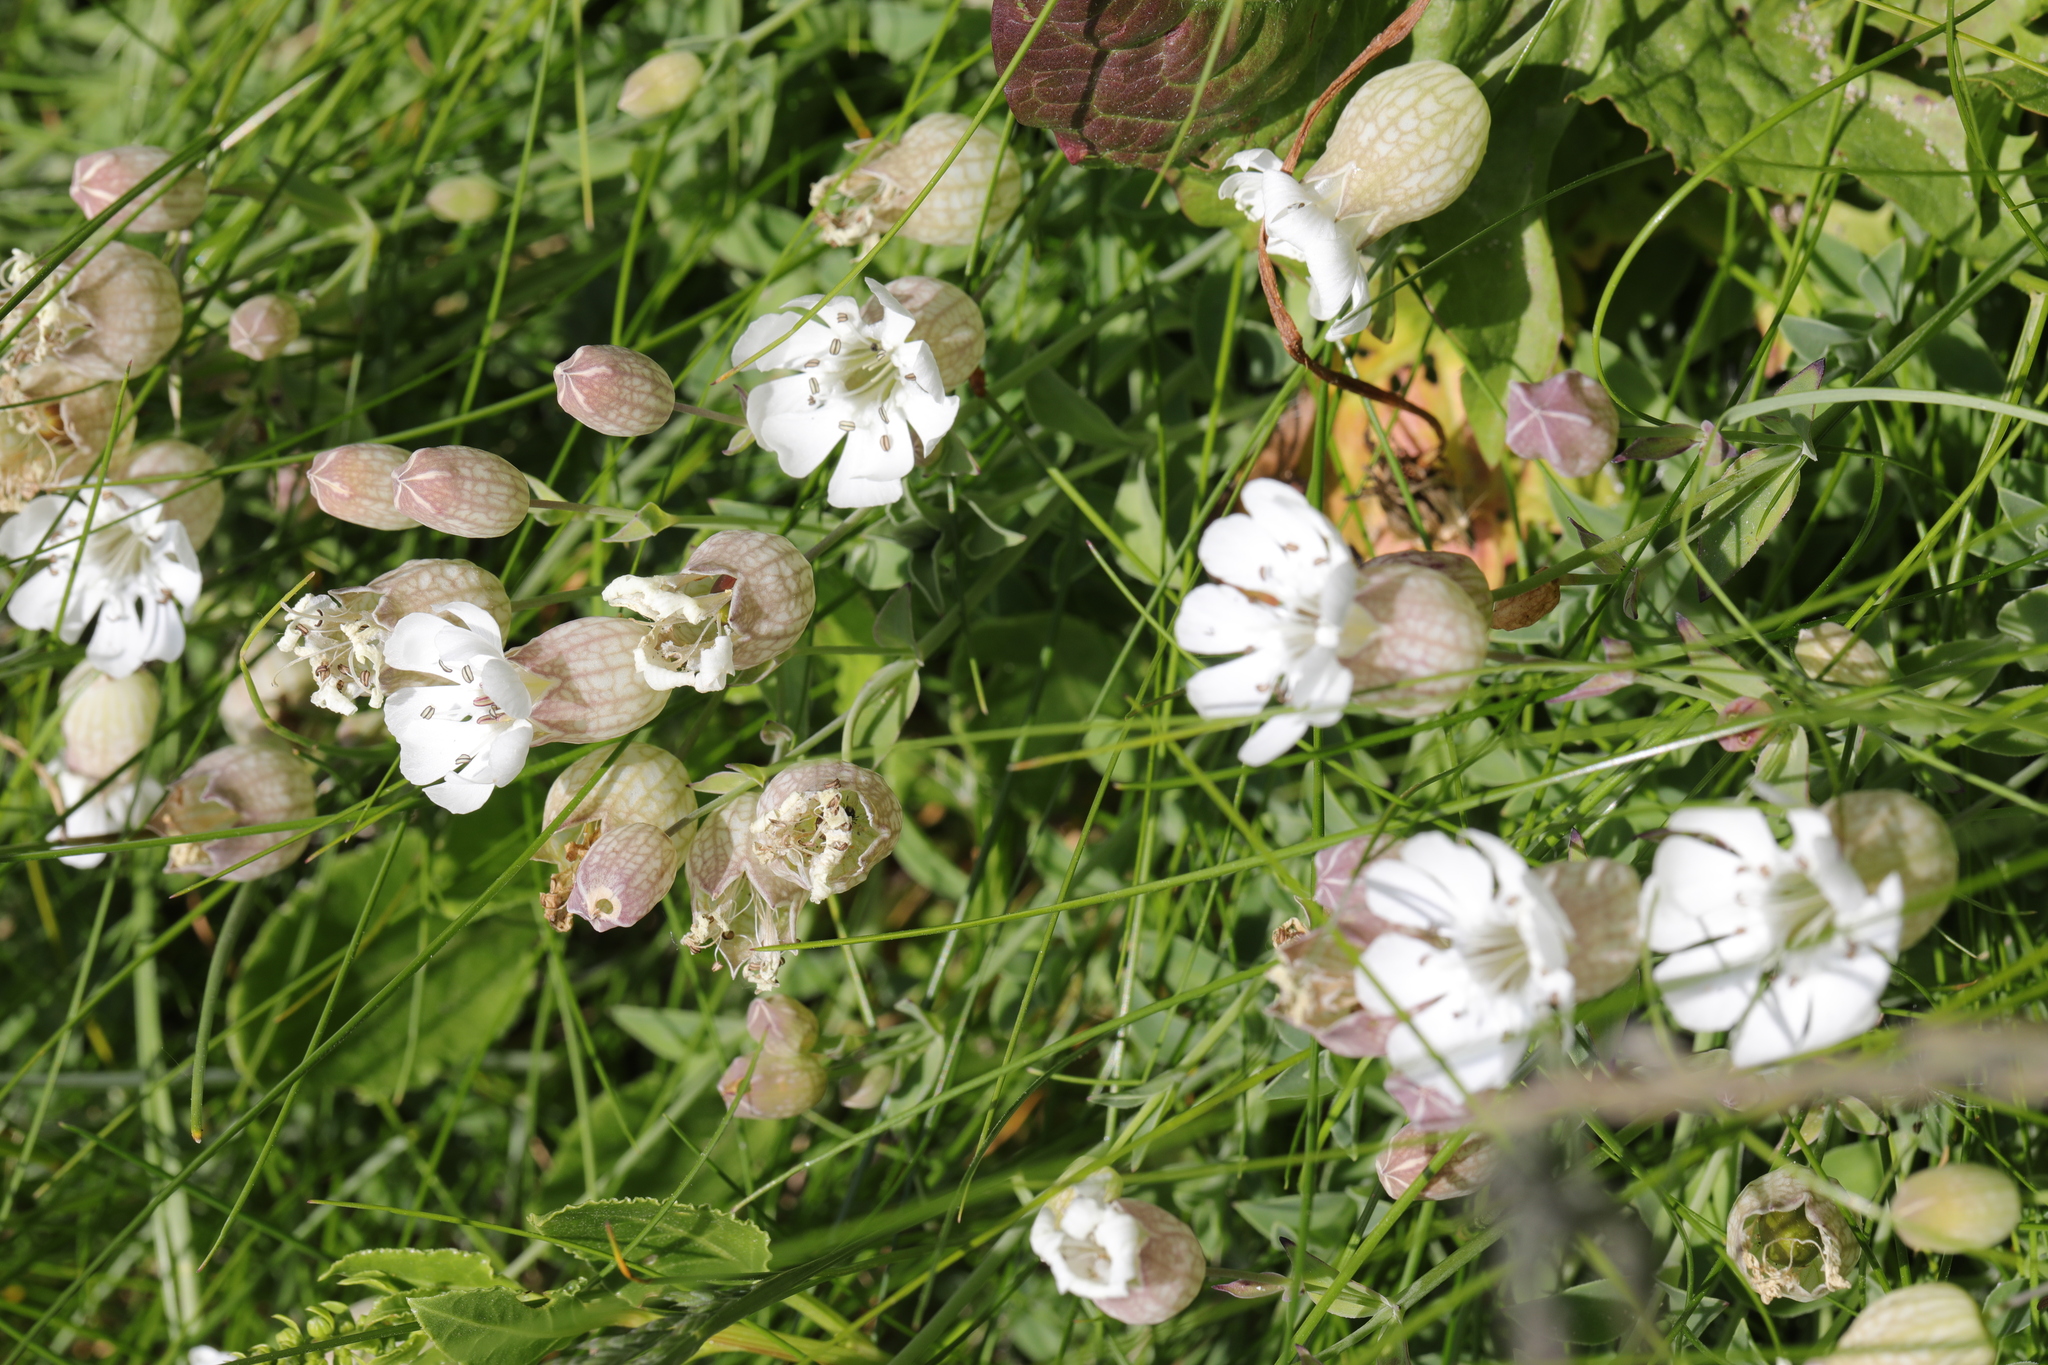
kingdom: Plantae
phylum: Tracheophyta
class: Magnoliopsida
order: Caryophyllales
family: Caryophyllaceae
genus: Silene
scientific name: Silene uniflora
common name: Sea campion
